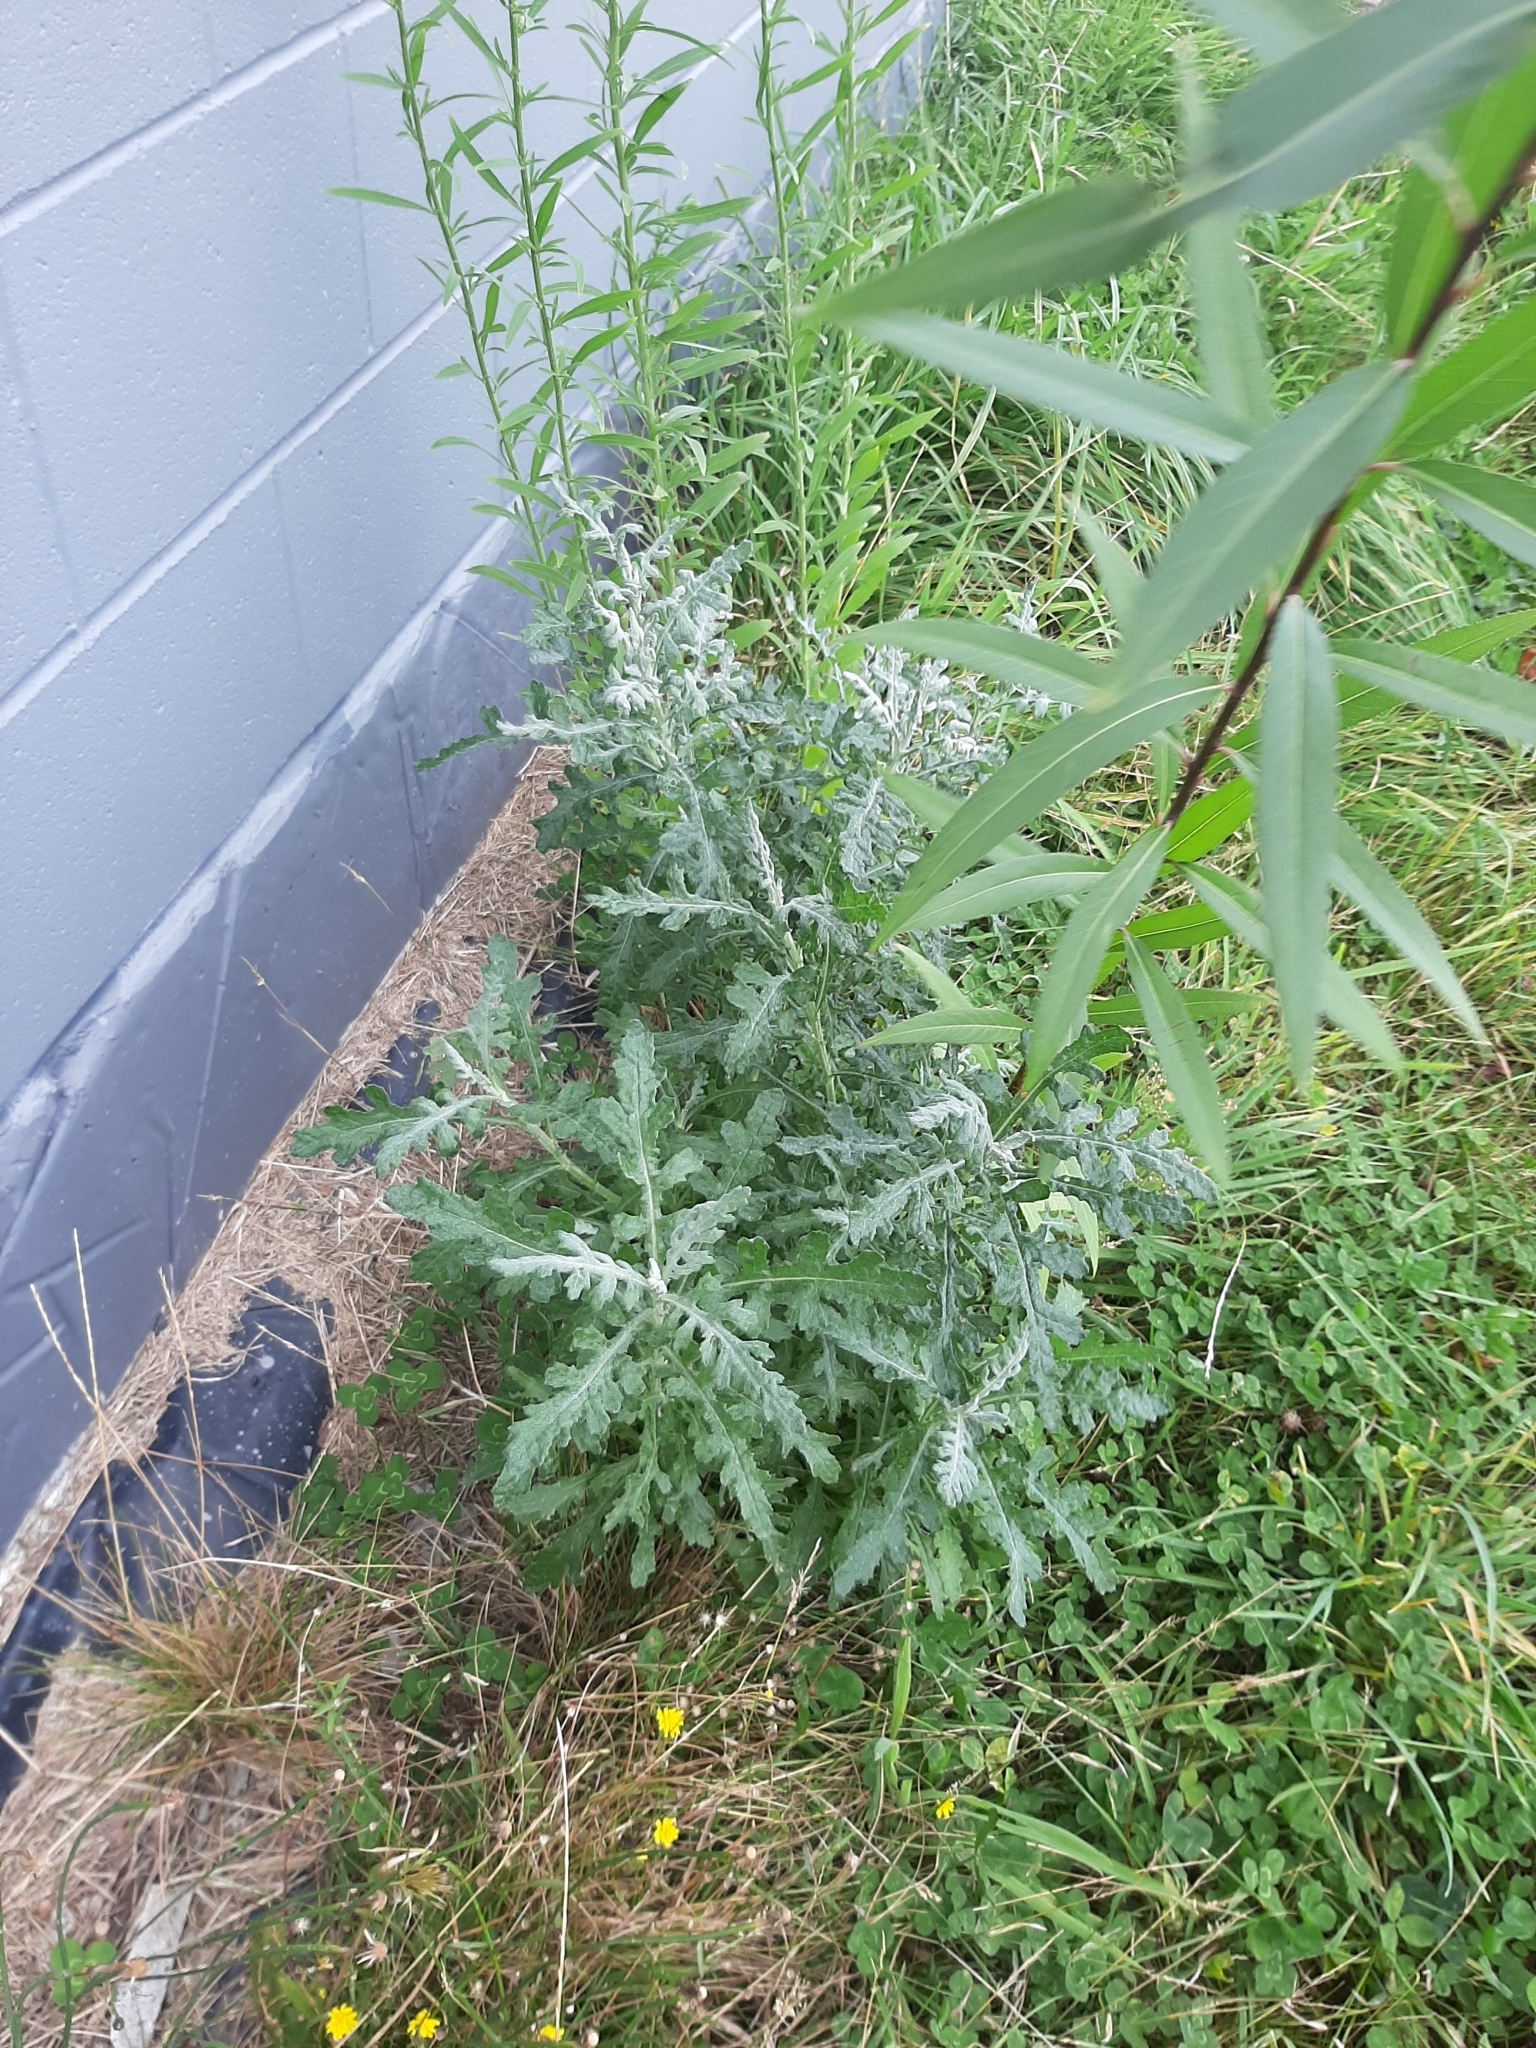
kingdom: Plantae
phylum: Tracheophyta
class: Magnoliopsida
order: Asterales
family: Asteraceae
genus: Senecio
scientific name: Senecio glomeratus
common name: Cutleaf burnweed
